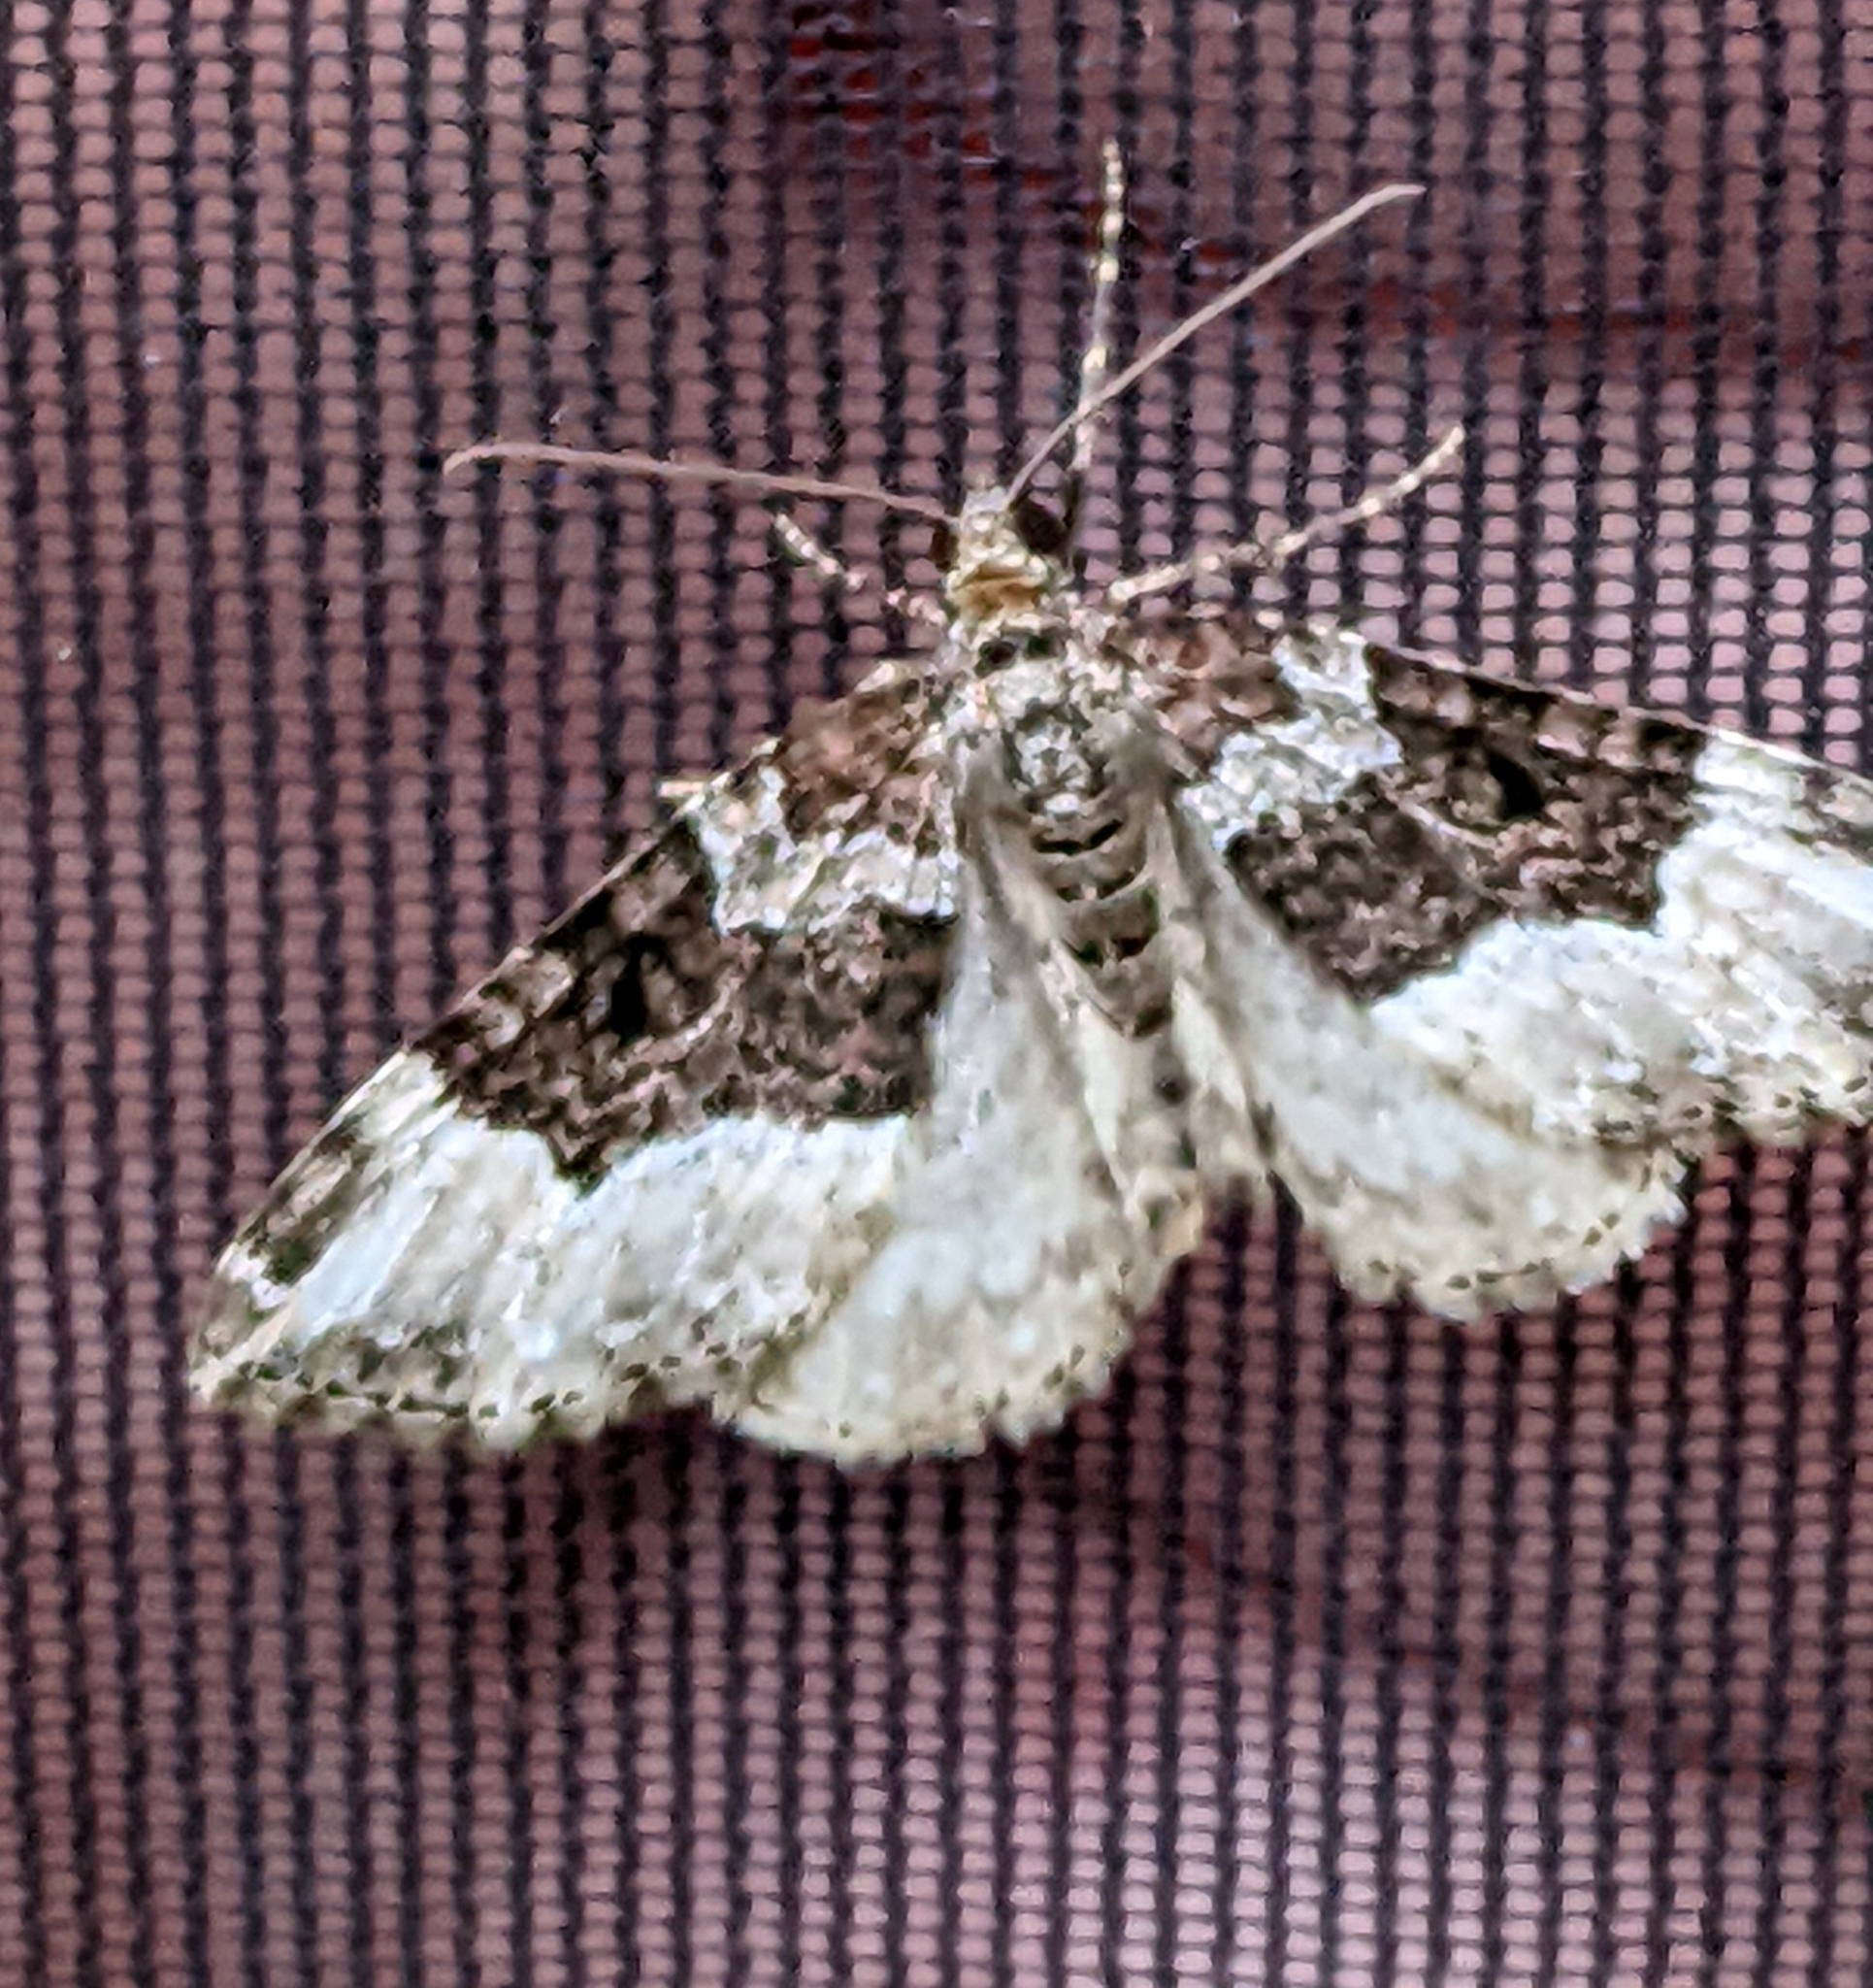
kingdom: Animalia
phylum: Arthropoda
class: Insecta
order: Lepidoptera
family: Geometridae
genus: Euphyia
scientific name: Euphyia intermediata
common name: Sharp-angled carpet
